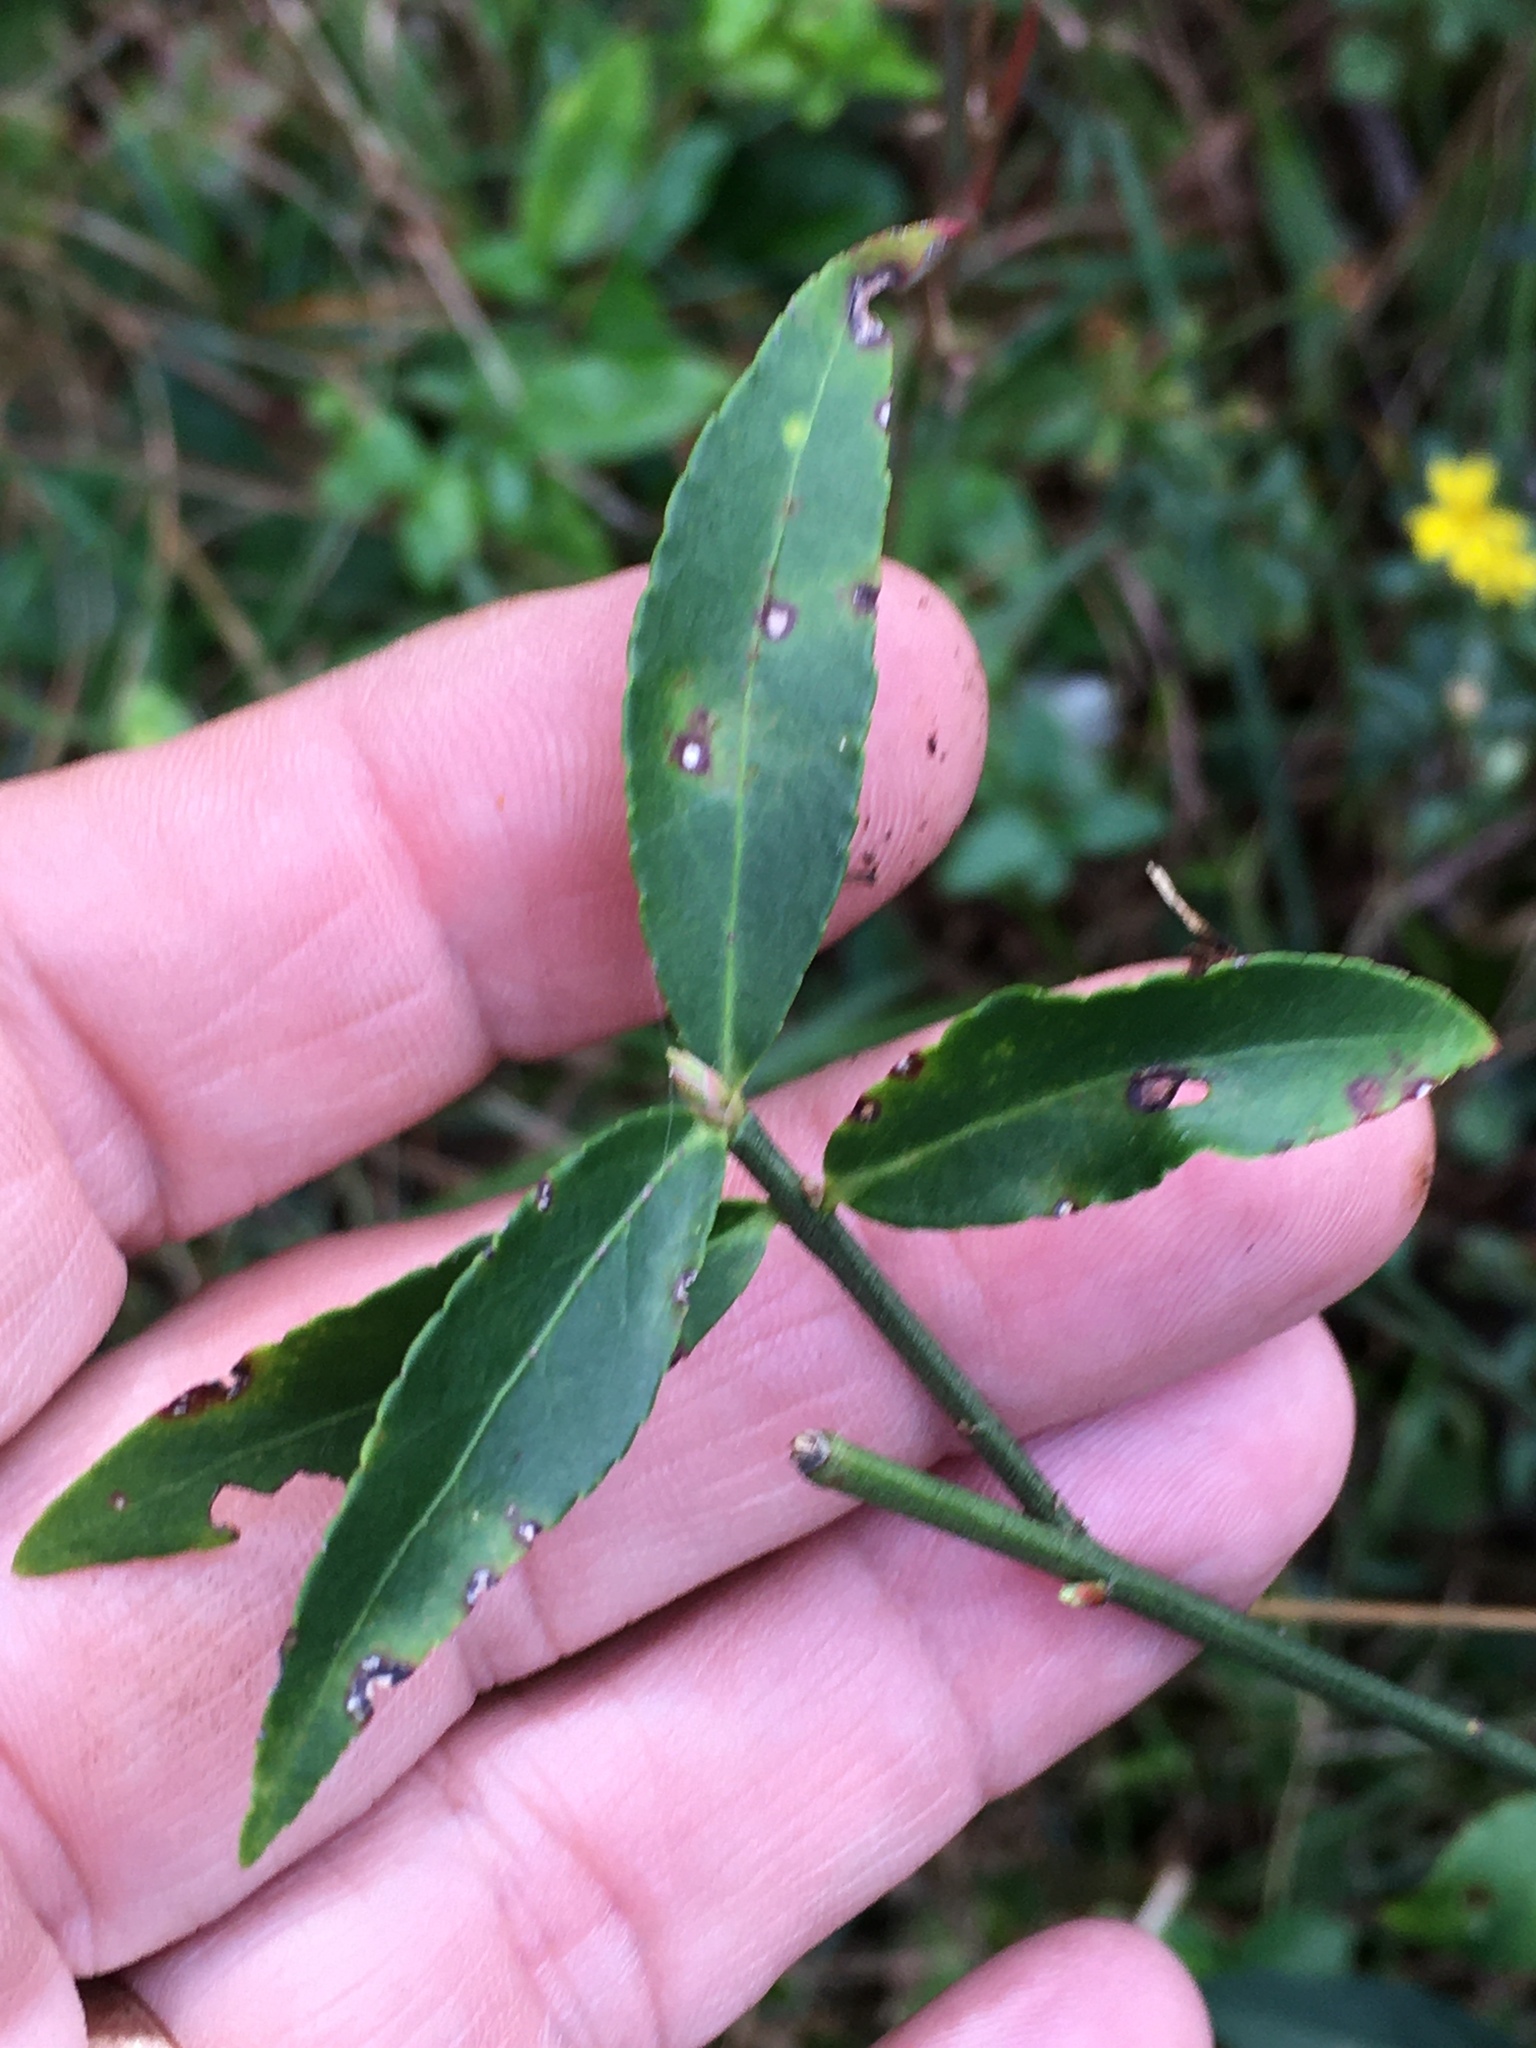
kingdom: Plantae
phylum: Tracheophyta
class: Magnoliopsida
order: Celastrales
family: Celastraceae
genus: Euonymus
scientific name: Euonymus americanus
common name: Bursting-heart
